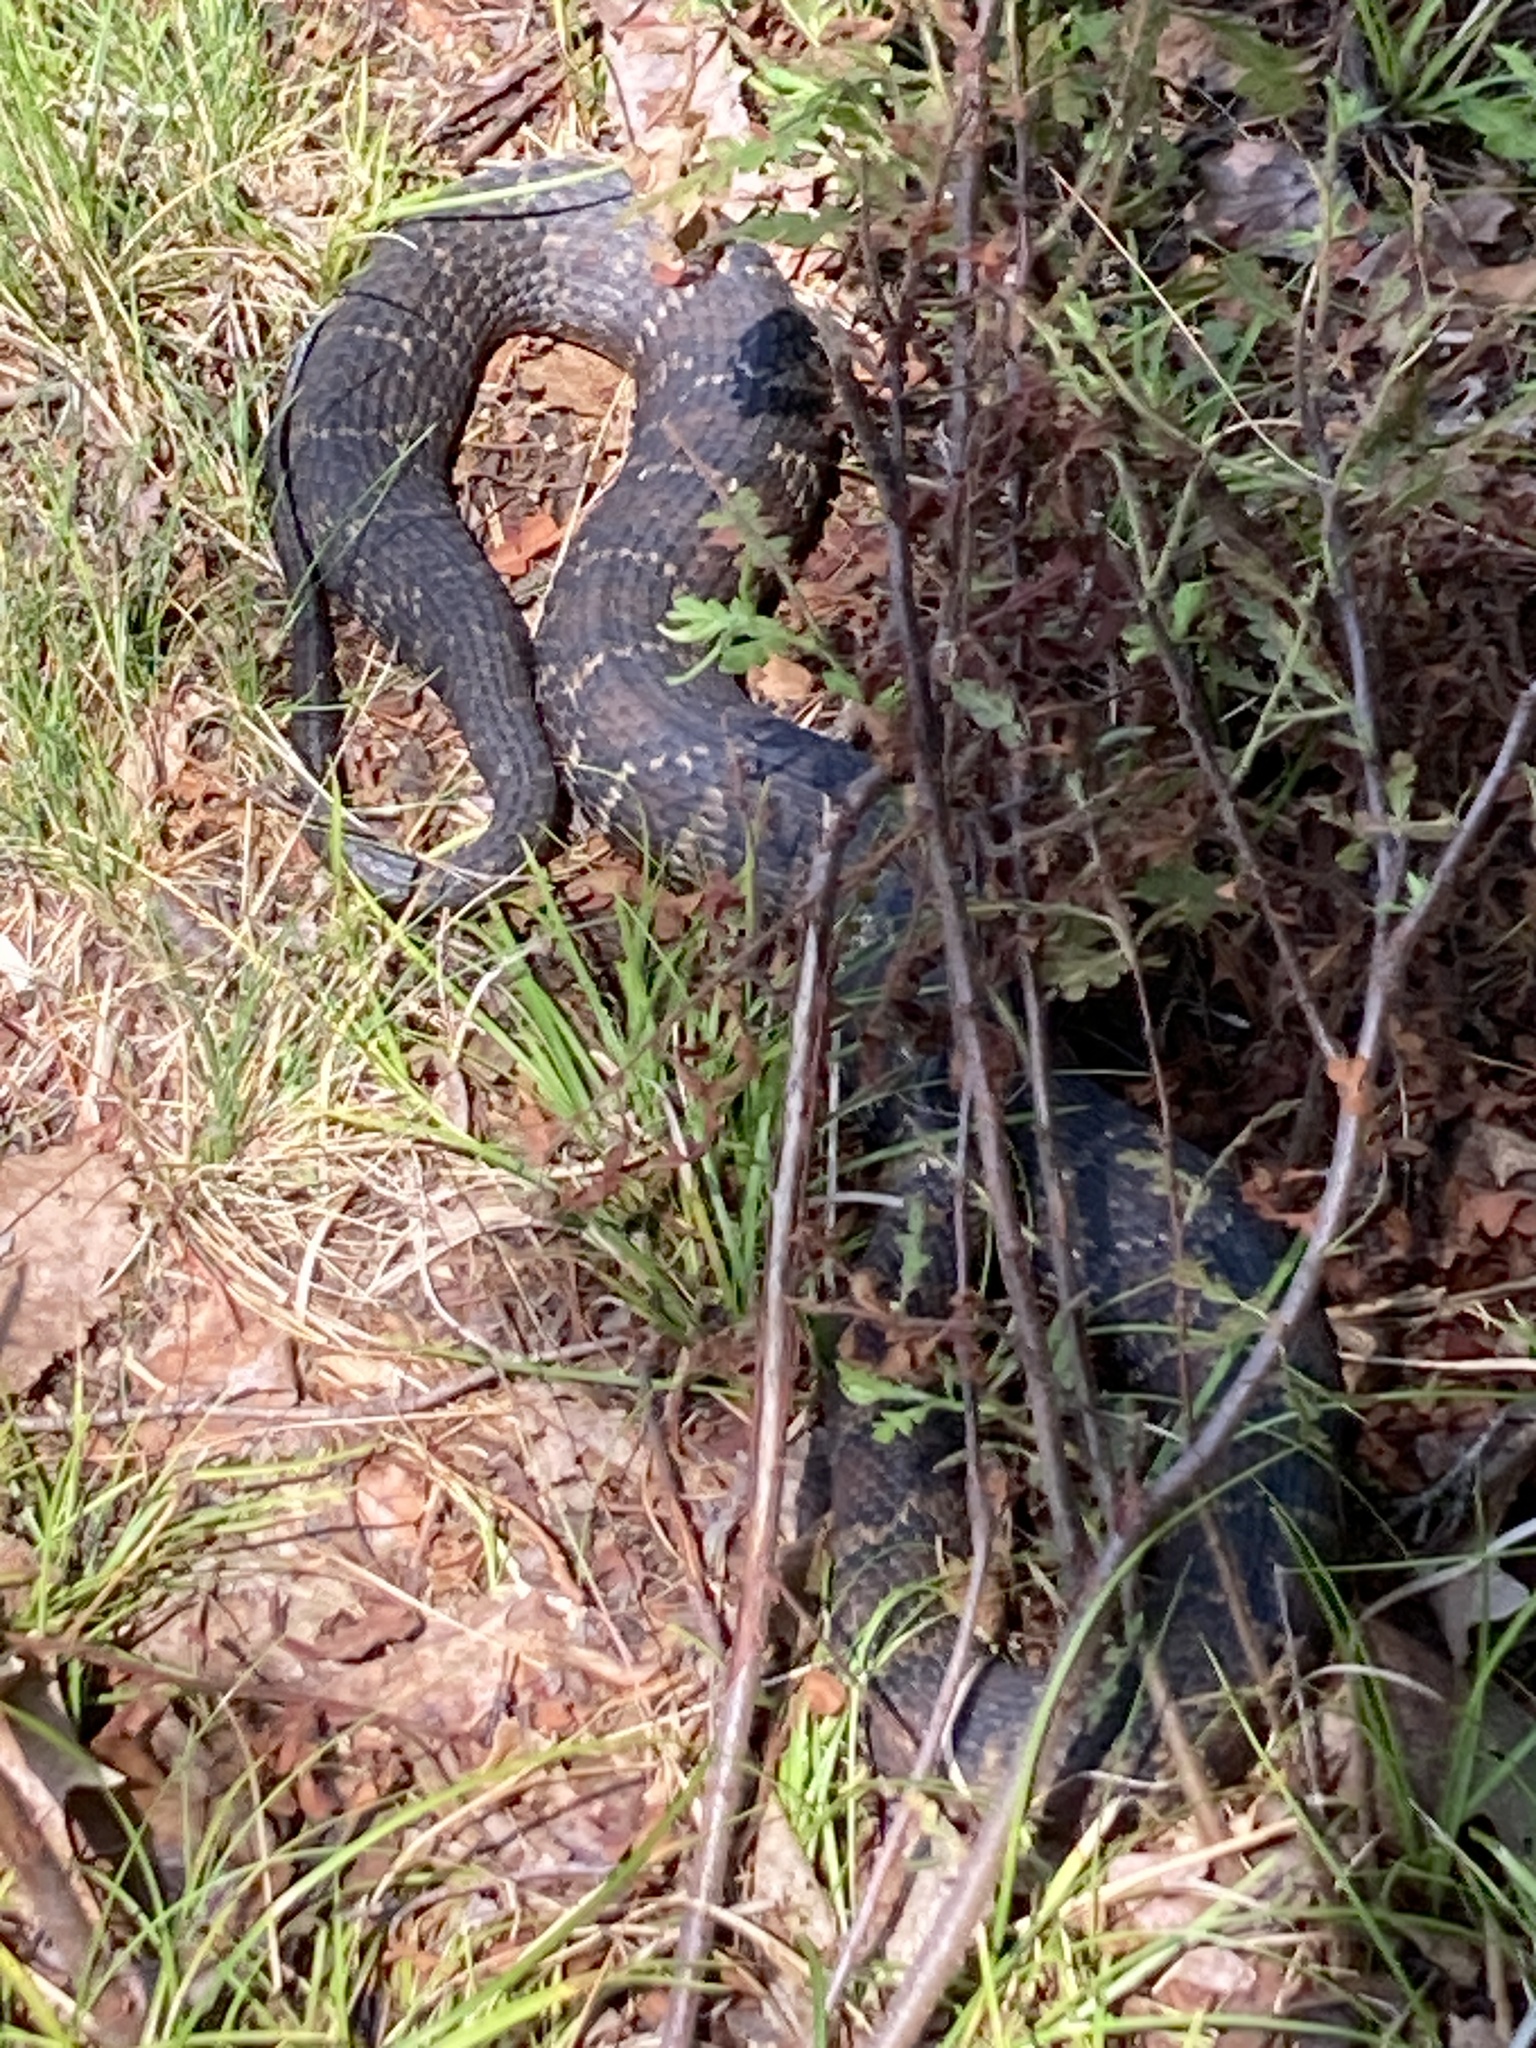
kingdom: Animalia
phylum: Chordata
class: Squamata
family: Colubridae
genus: Nerodia
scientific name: Nerodia sipedon
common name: Northern water snake
